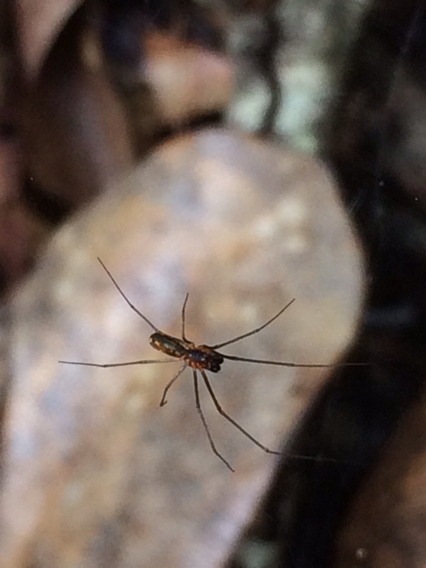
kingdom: Animalia
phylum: Arthropoda
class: Arachnida
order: Araneae
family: Linyphiidae
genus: Neriene
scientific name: Neriene radiata
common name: Filmy dome spider
